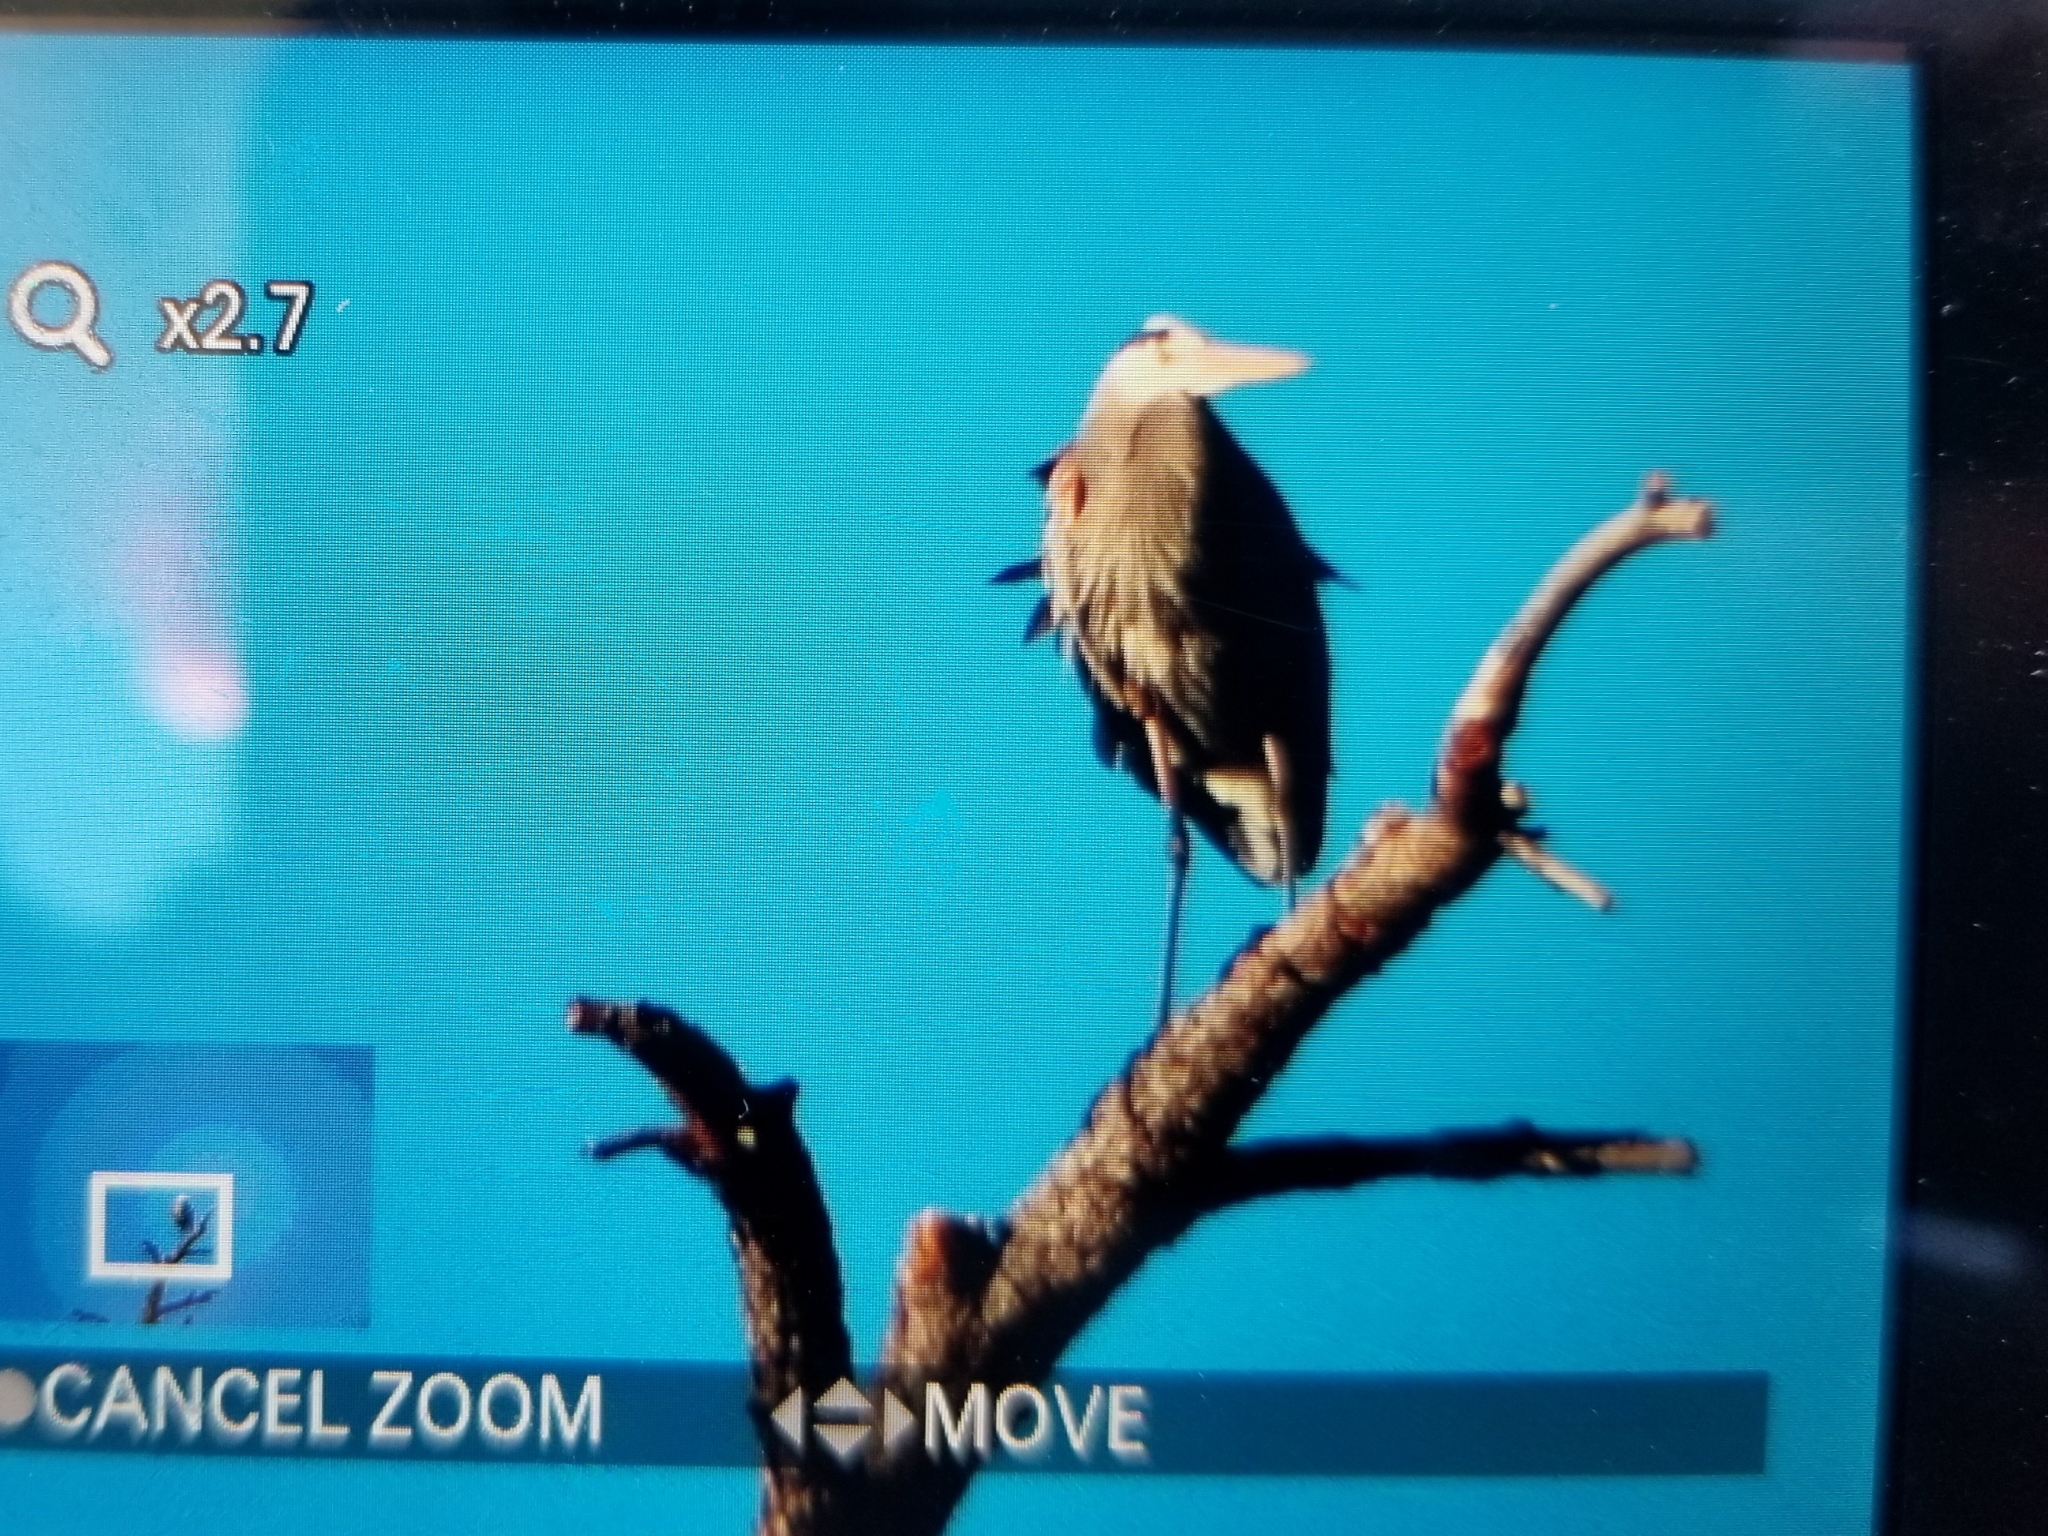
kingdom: Animalia
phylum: Chordata
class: Aves
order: Pelecaniformes
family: Ardeidae
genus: Ardea
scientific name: Ardea herodias
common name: Great blue heron
